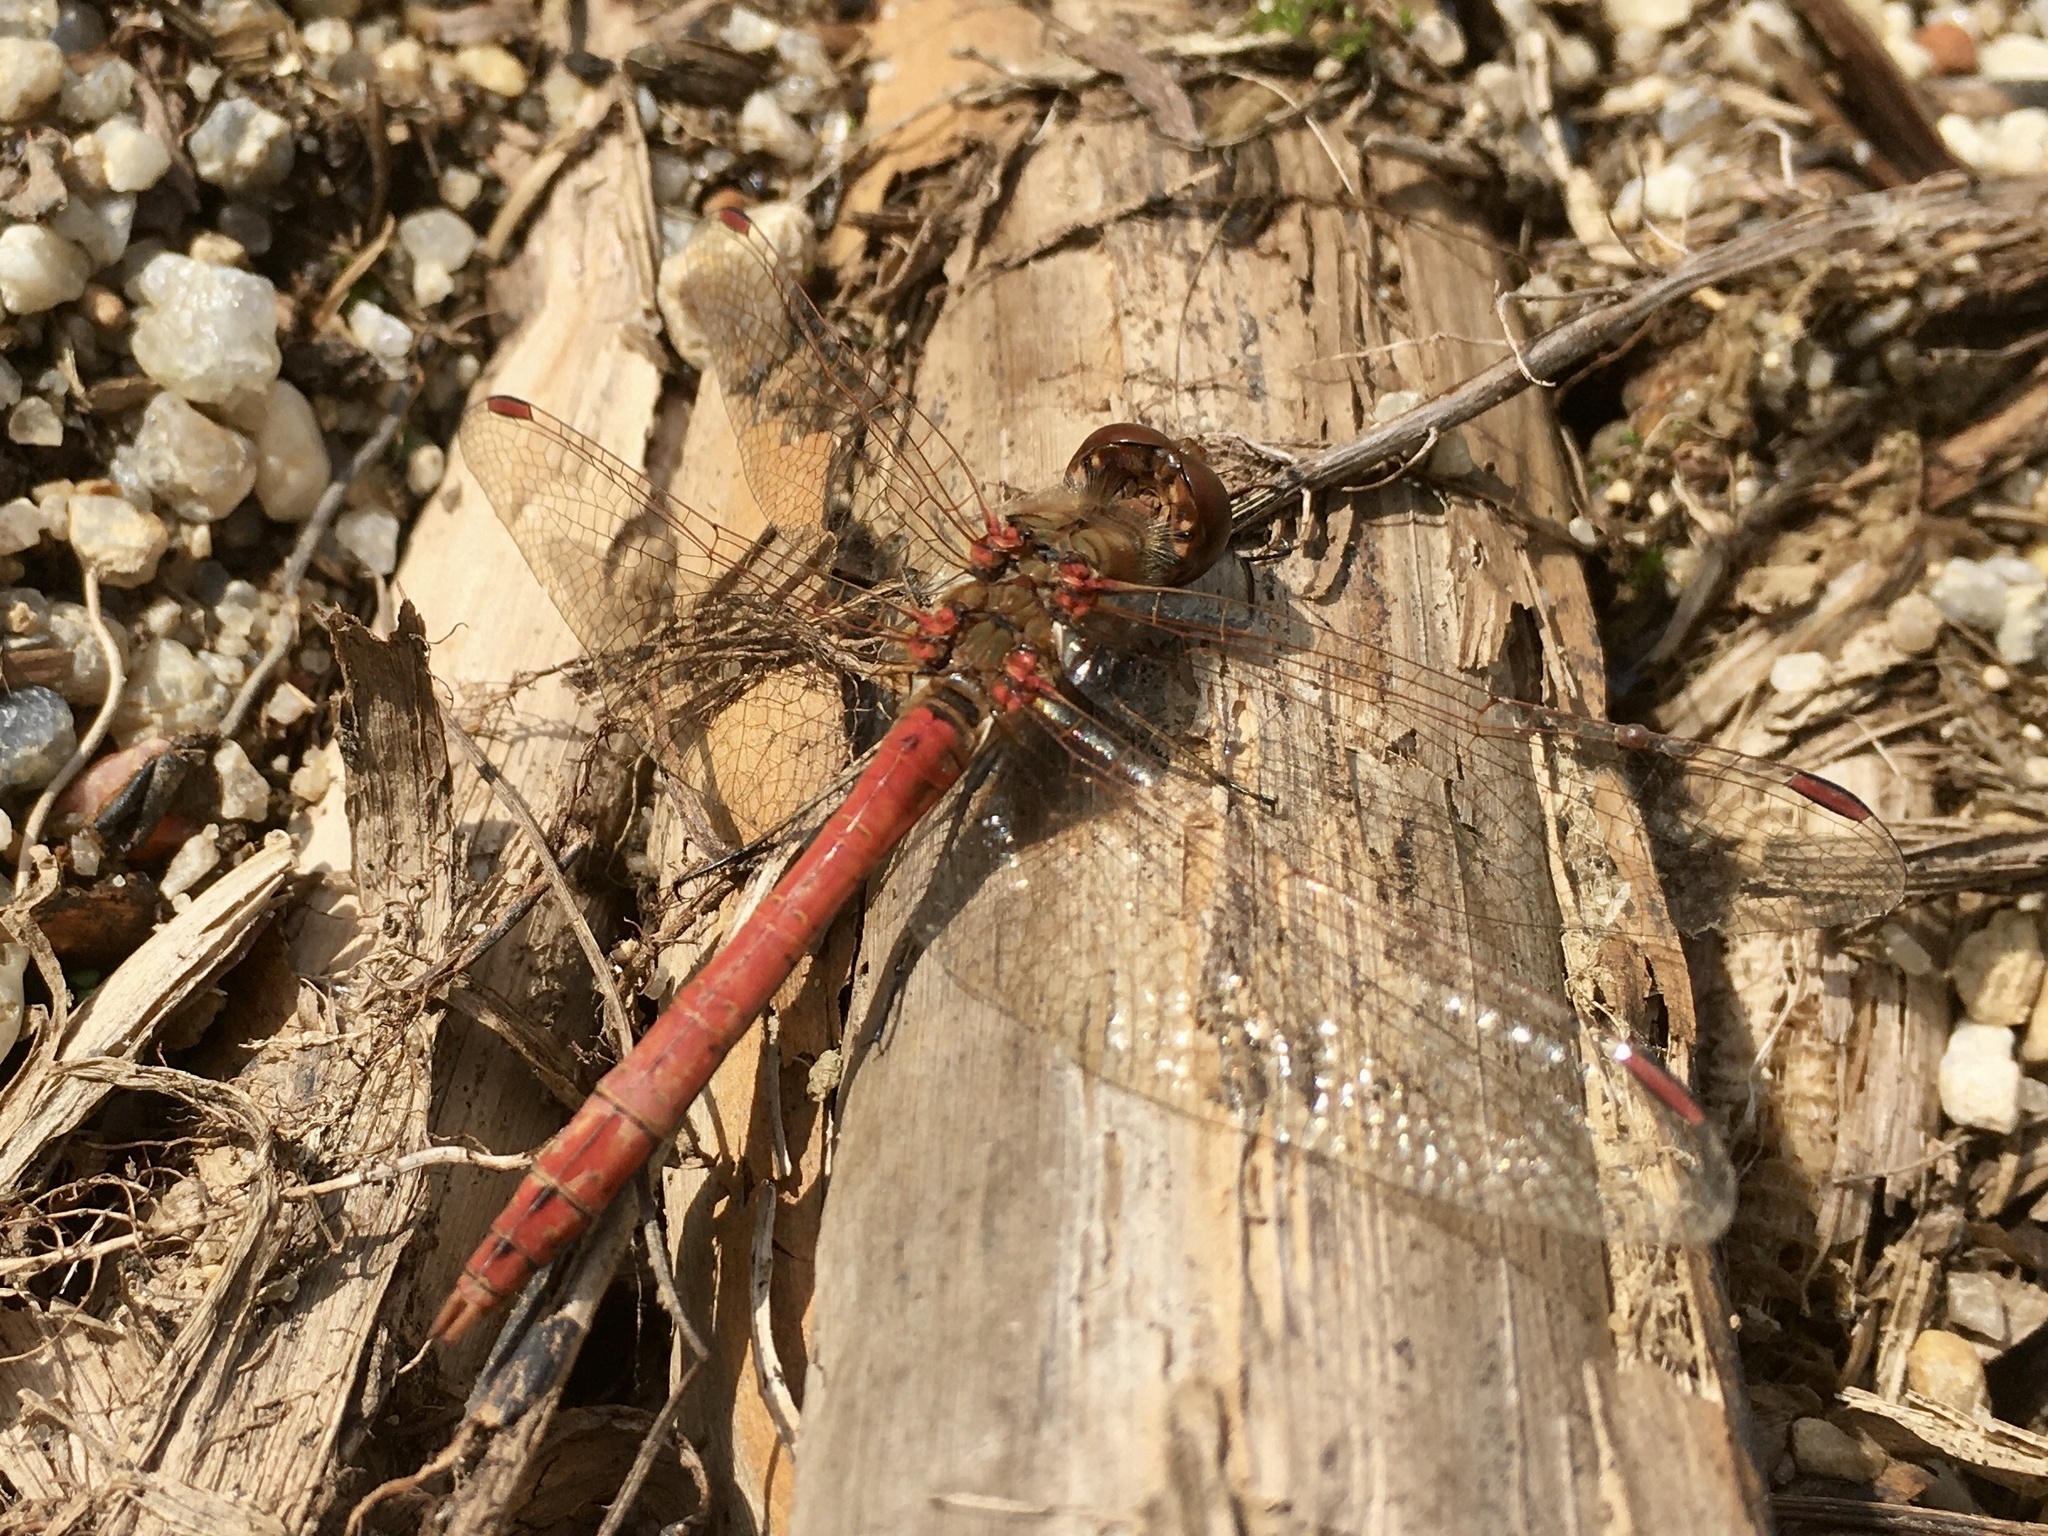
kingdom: Animalia
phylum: Arthropoda
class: Insecta
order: Odonata
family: Libellulidae
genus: Sympetrum
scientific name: Sympetrum vulgatum
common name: Vagrant darter
